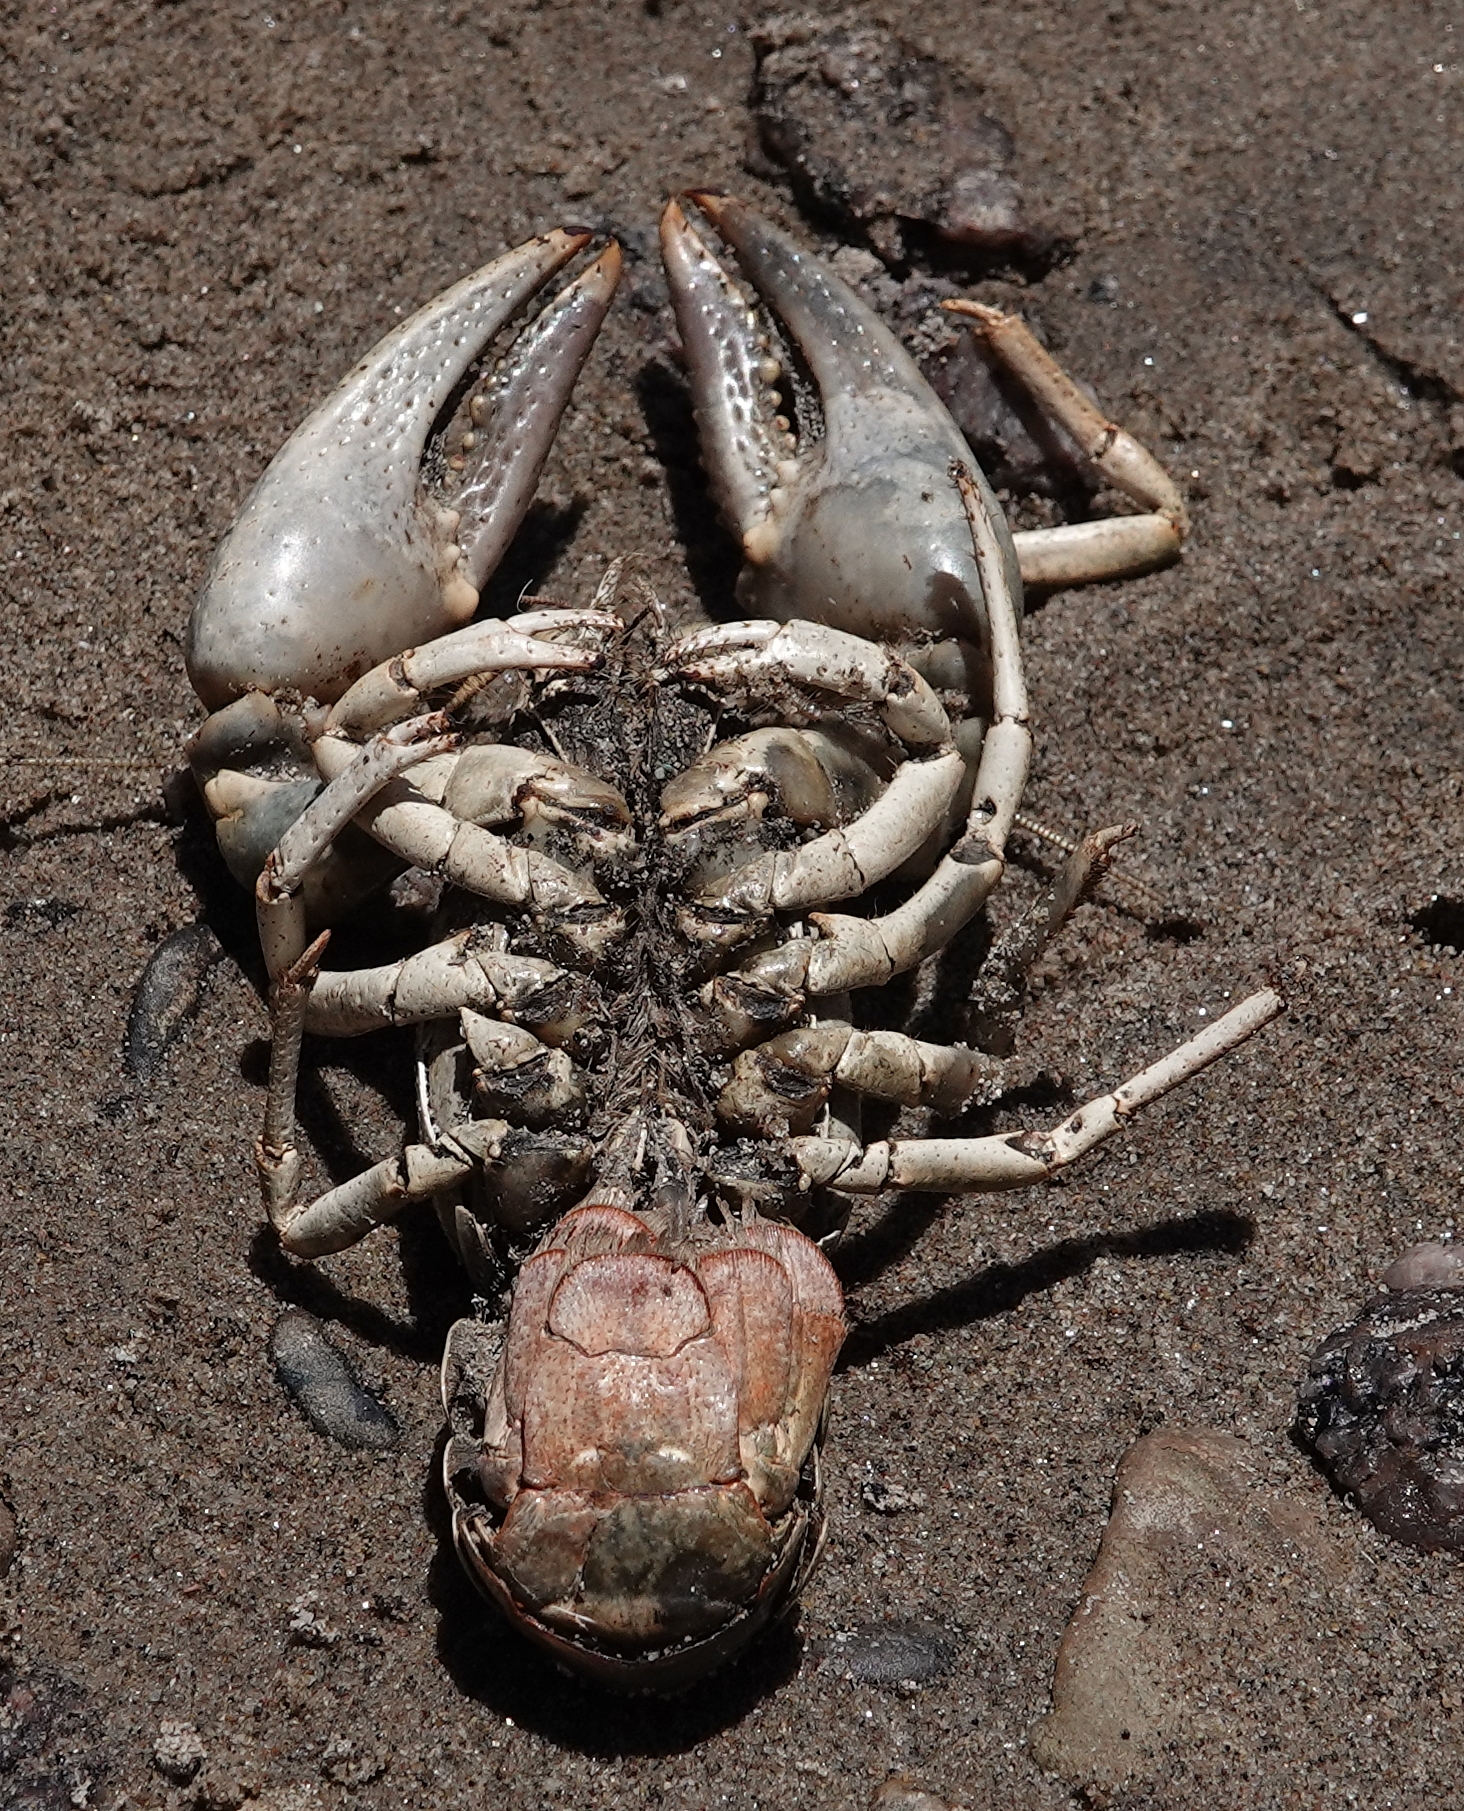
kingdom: Animalia
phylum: Arthropoda
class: Malacostraca
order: Decapoda
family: Cambaridae
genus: Faxonius
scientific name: Faxonius virilis
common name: Virile crayfish
